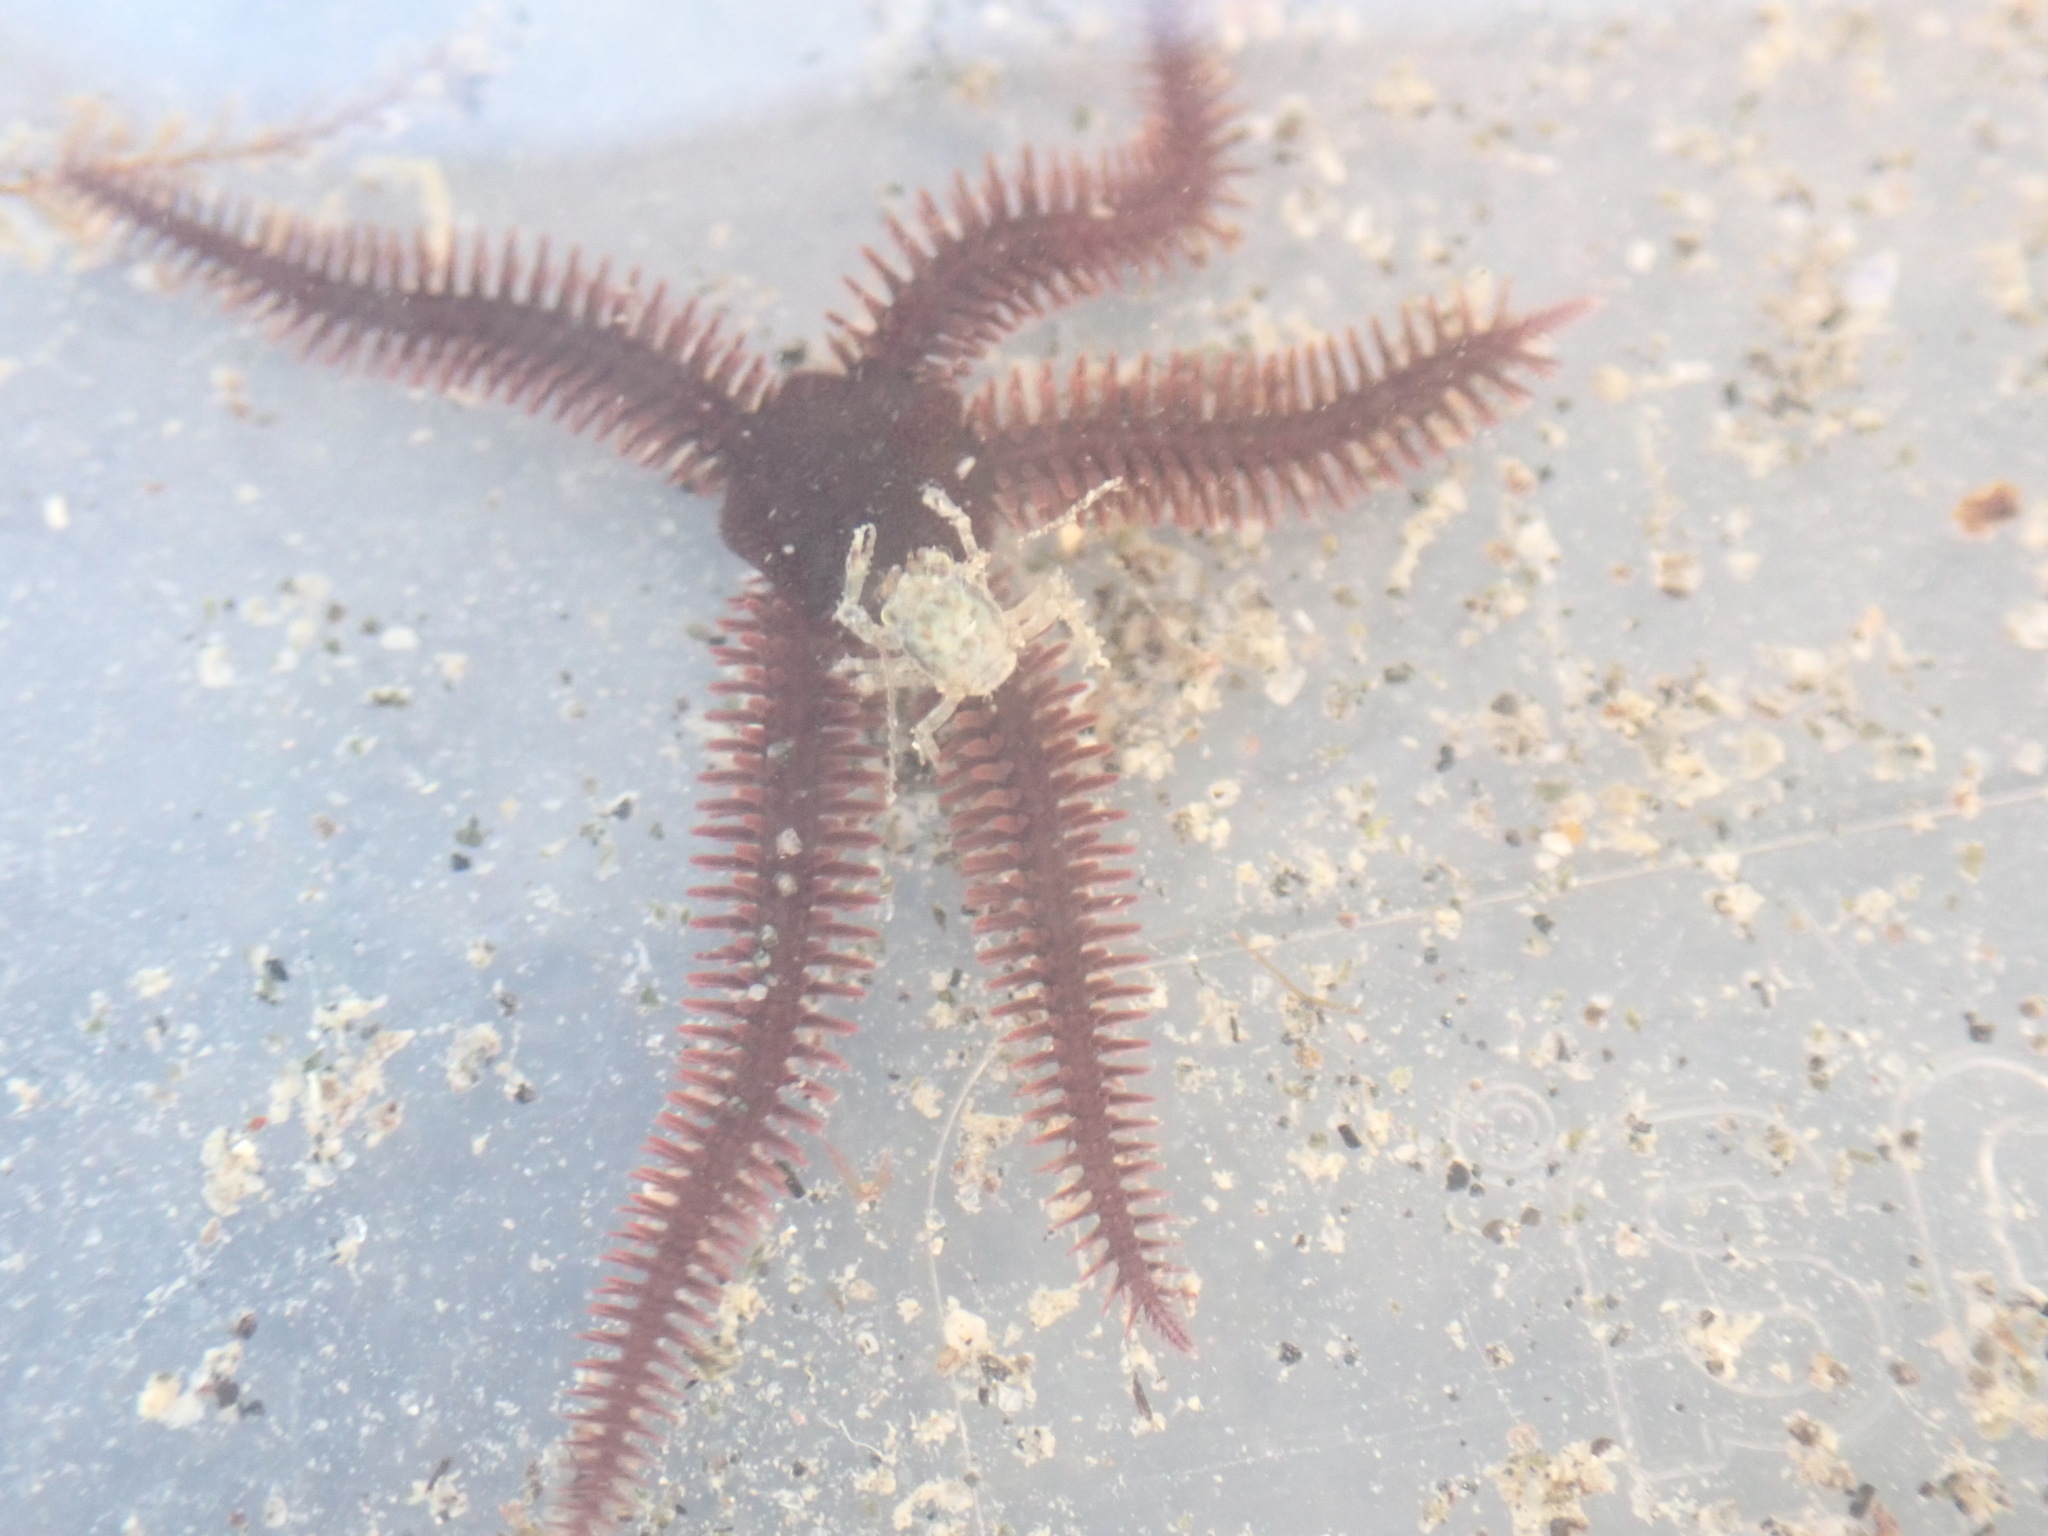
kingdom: Animalia
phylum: Echinodermata
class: Ophiuroidea
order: Ophiacanthida
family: Ophiopteridae
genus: Ophiopteris
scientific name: Ophiopteris antipodum
